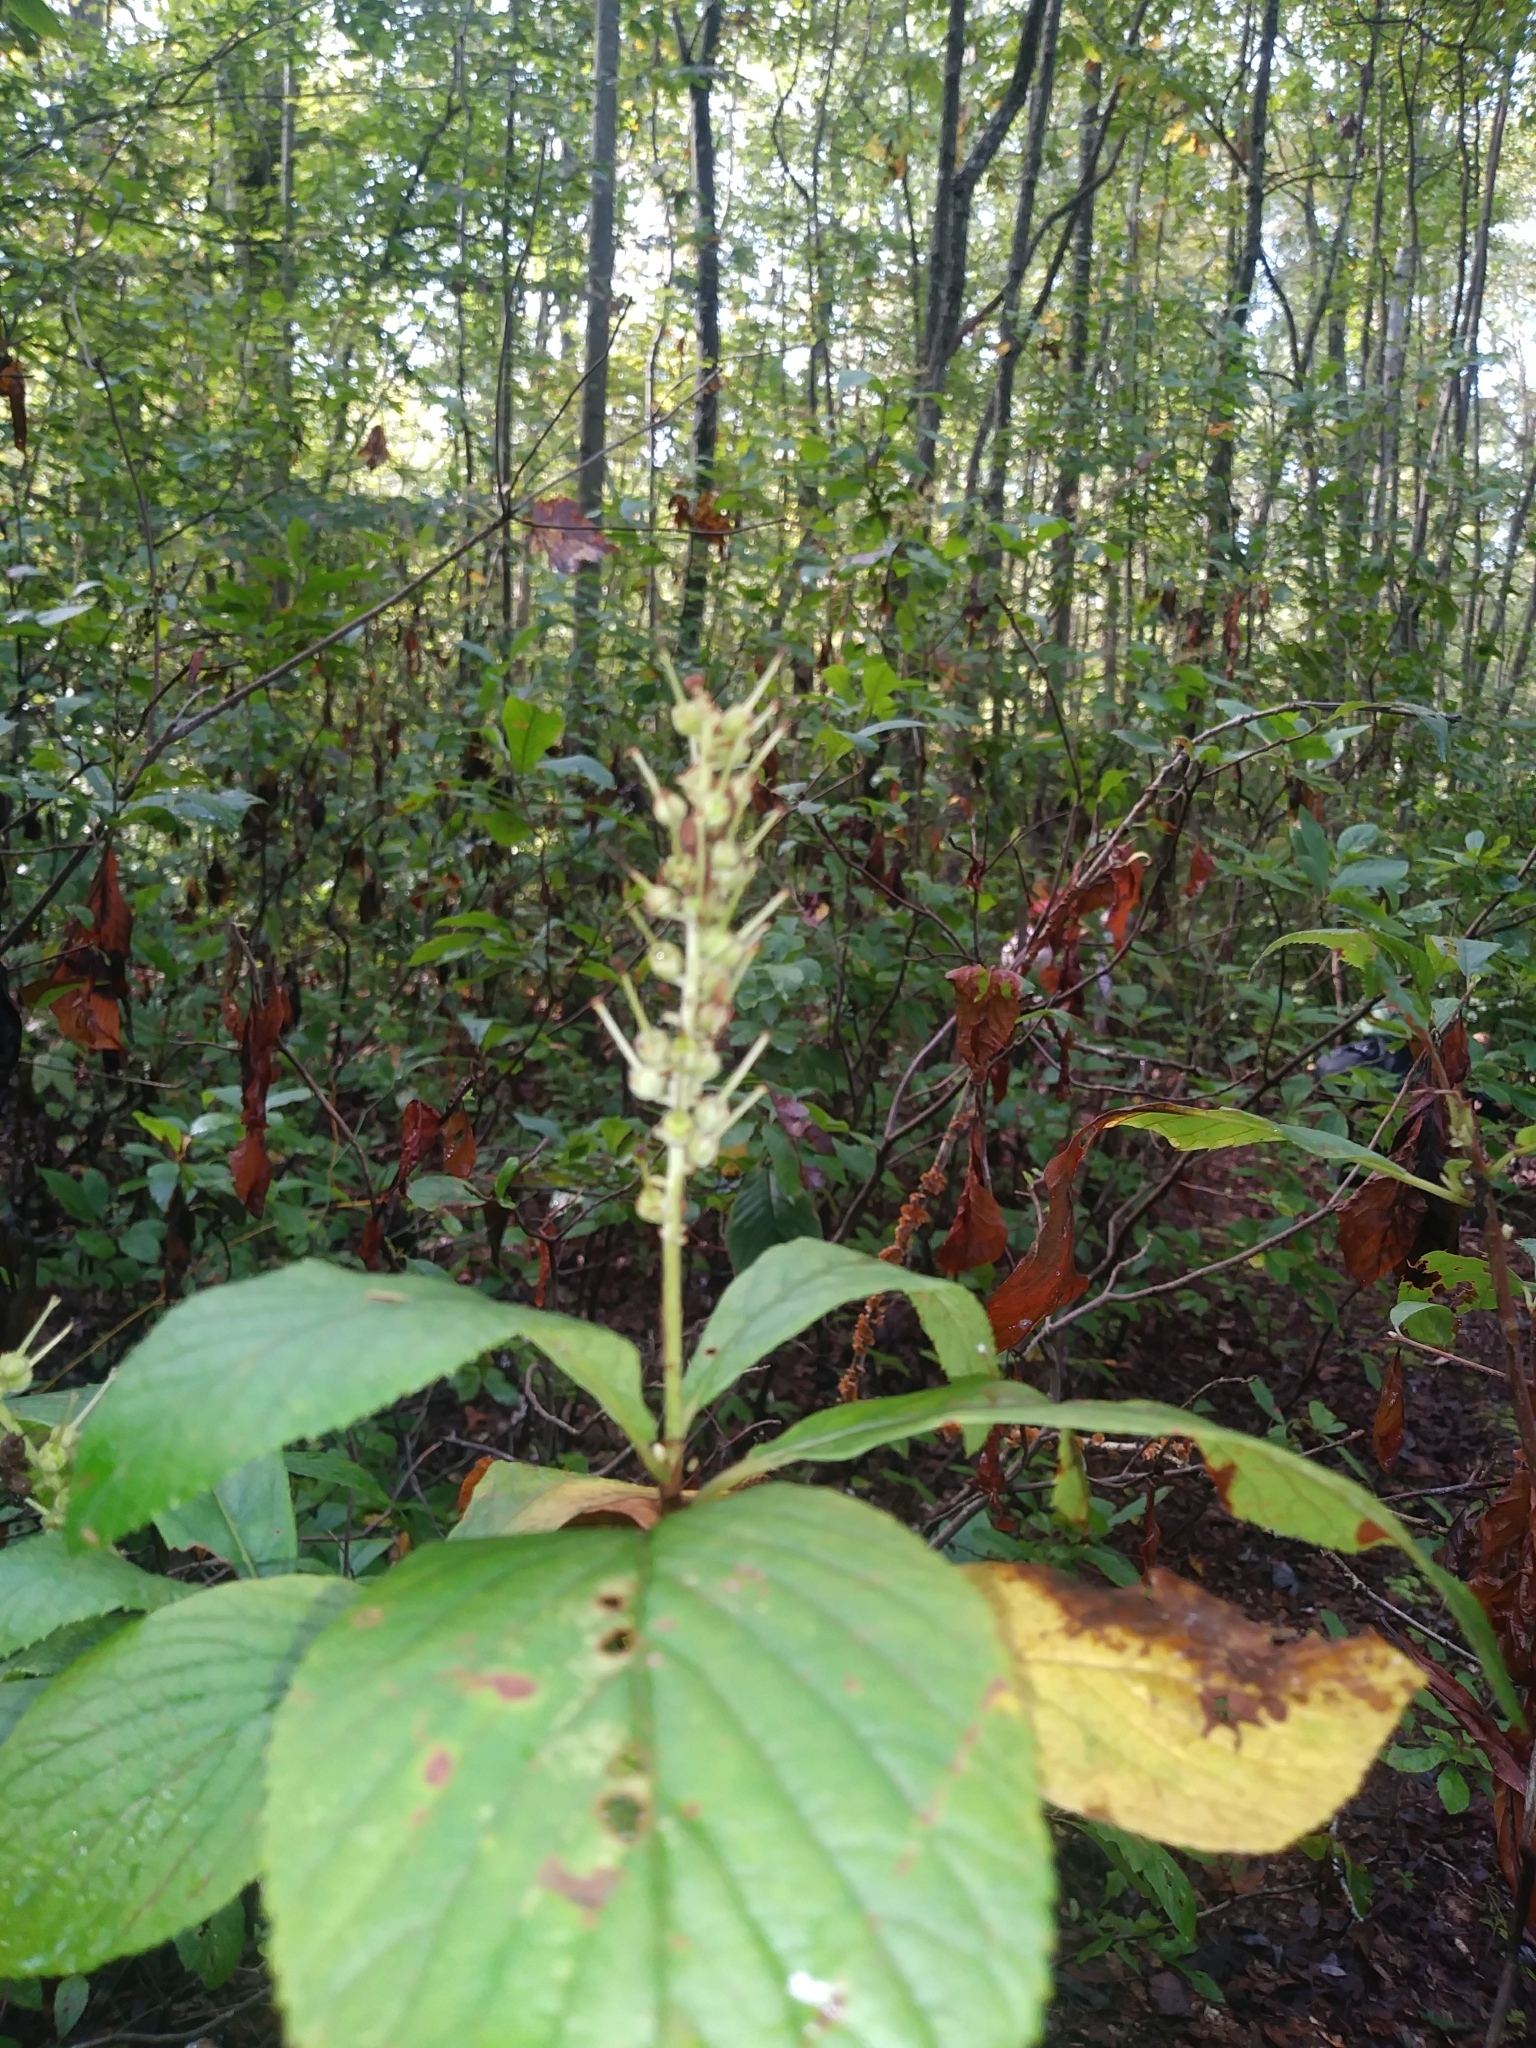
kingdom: Plantae
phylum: Tracheophyta
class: Magnoliopsida
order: Ericales
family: Clethraceae
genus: Clethra
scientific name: Clethra alnifolia
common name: Sweet pepperbush
